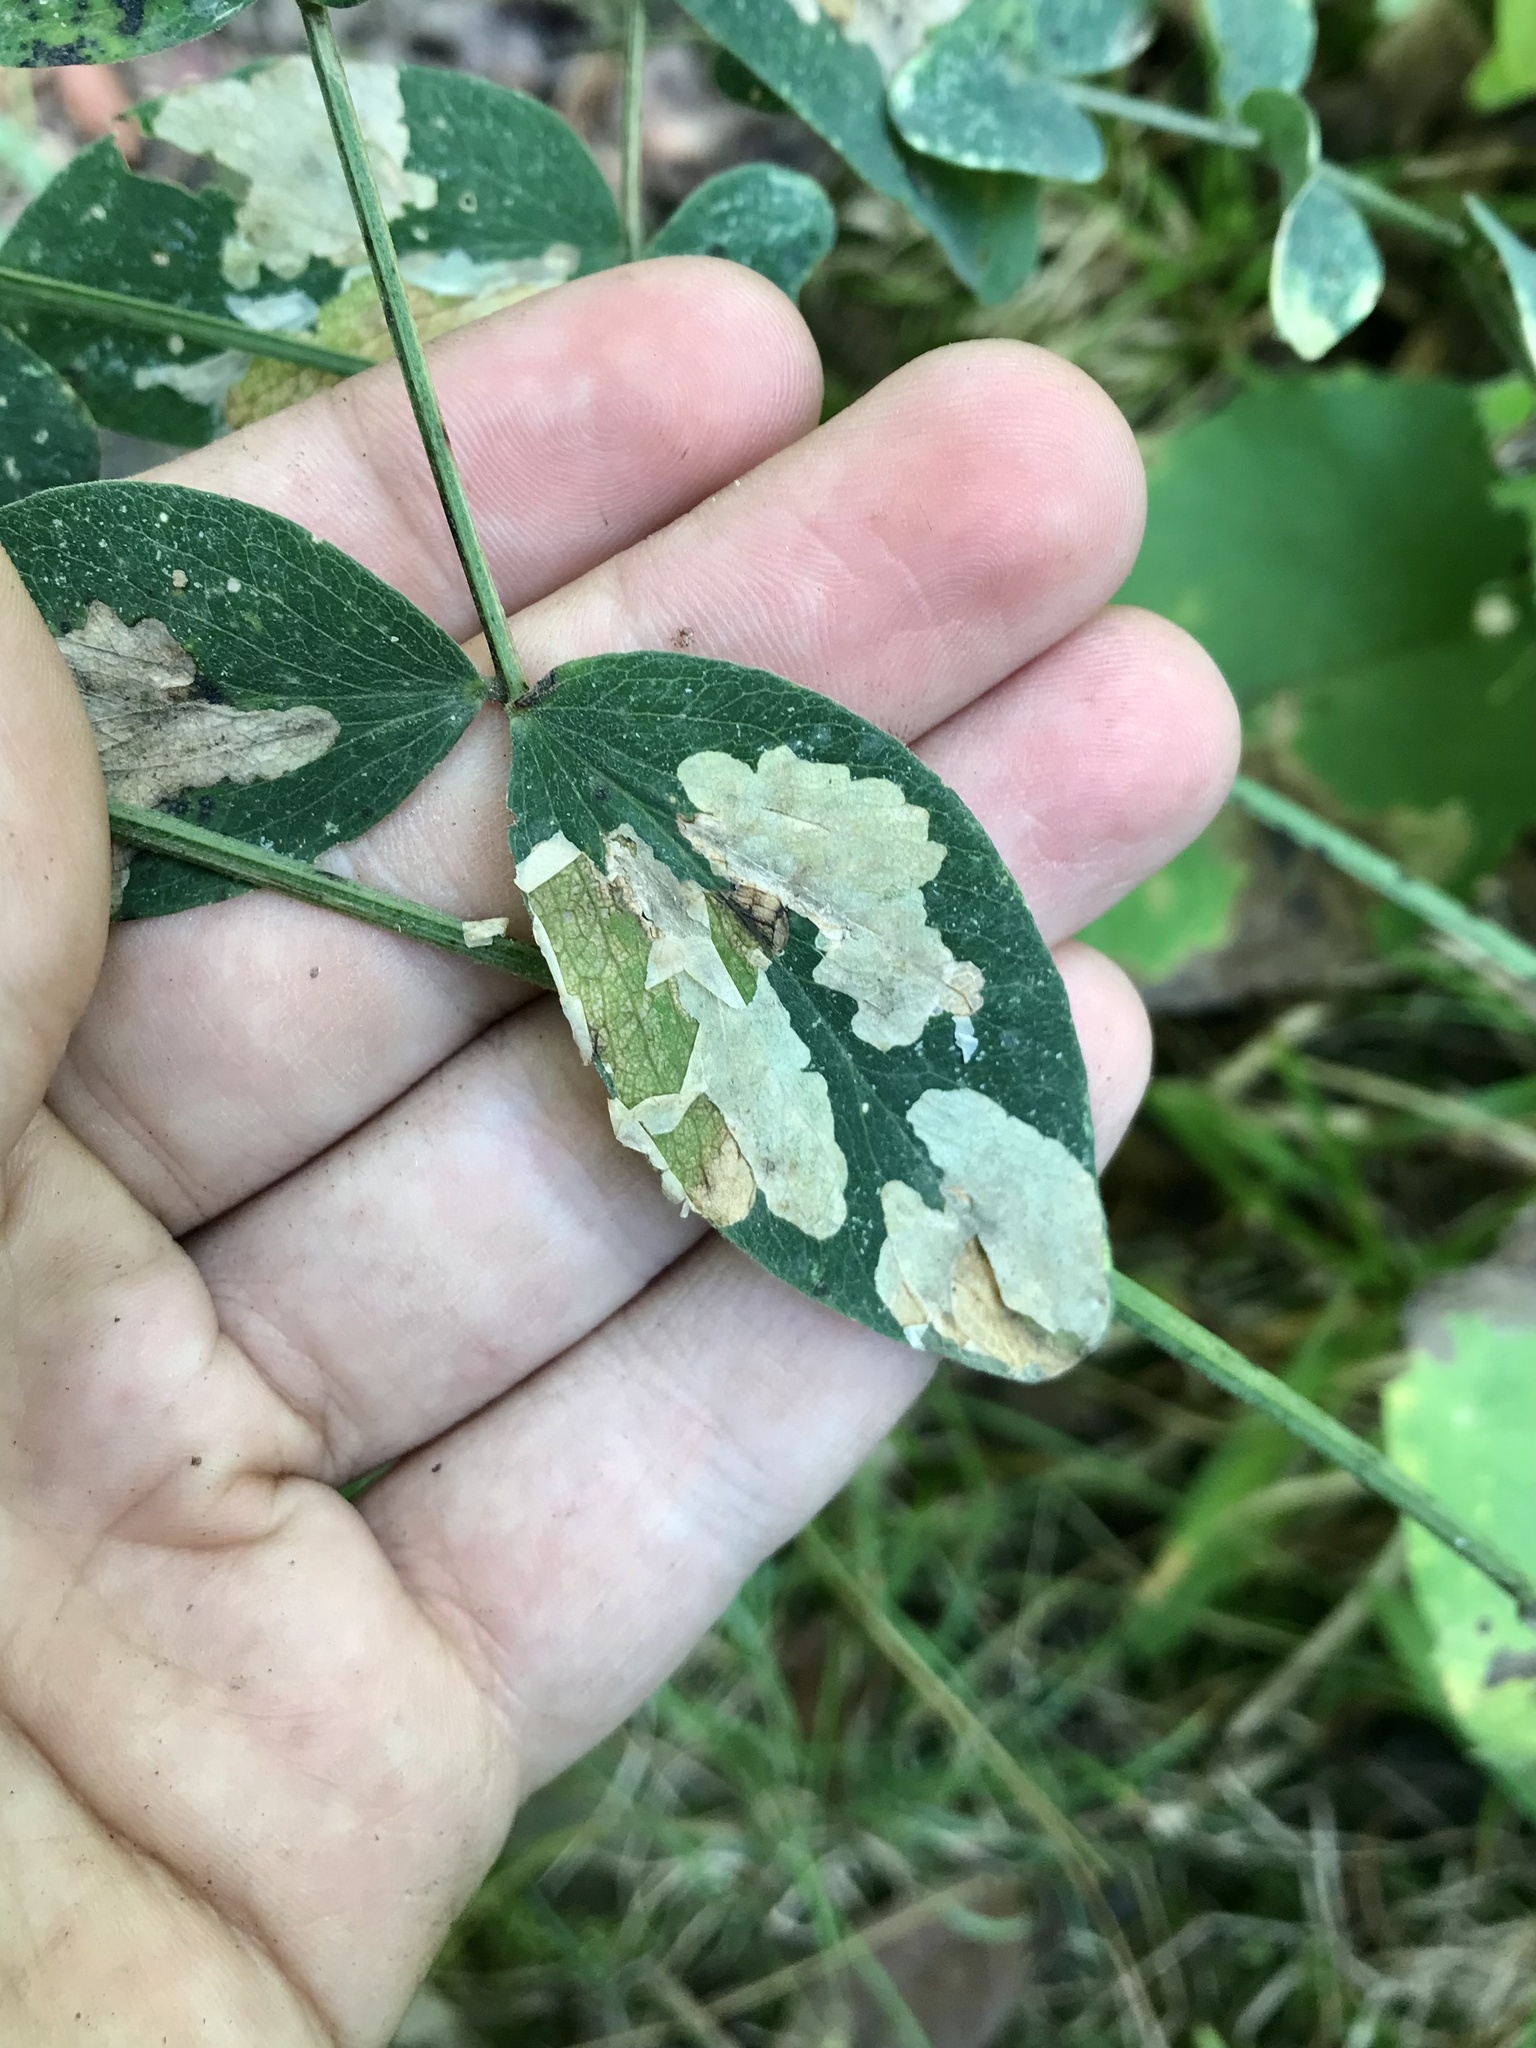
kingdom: Animalia
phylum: Arthropoda
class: Insecta
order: Lepidoptera
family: Gracillariidae
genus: Micrurapteryx
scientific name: Micrurapteryx occulta
